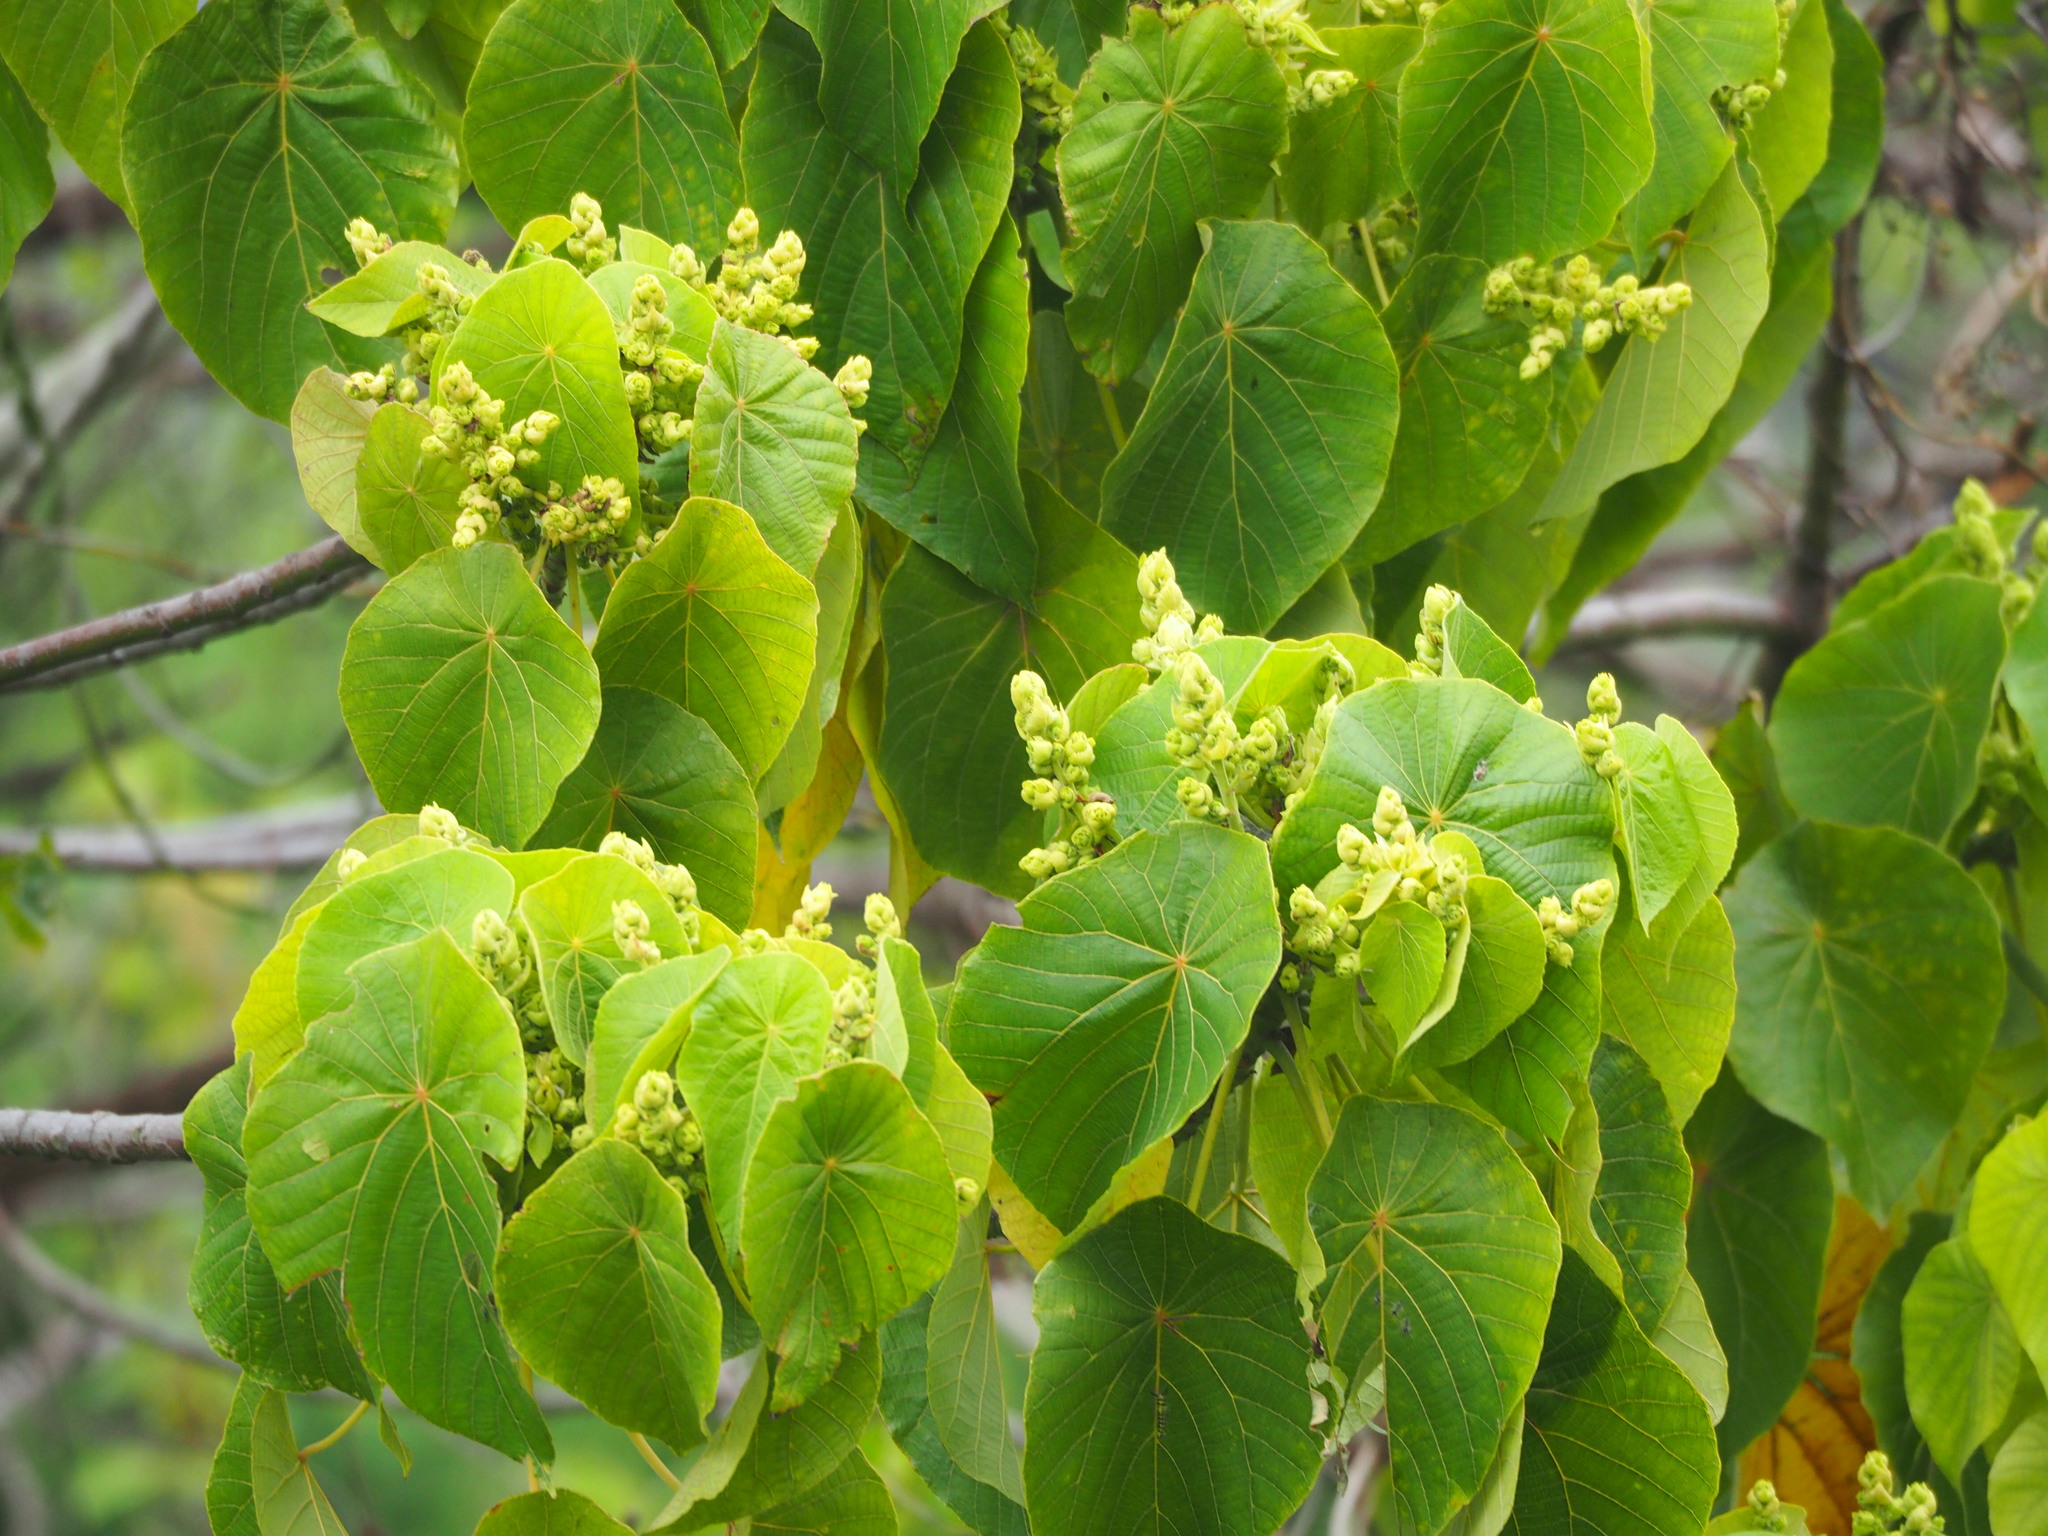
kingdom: Plantae
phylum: Tracheophyta
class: Magnoliopsida
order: Malpighiales
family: Euphorbiaceae
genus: Macaranga
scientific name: Macaranga tanarius
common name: Parasol leaf tree
